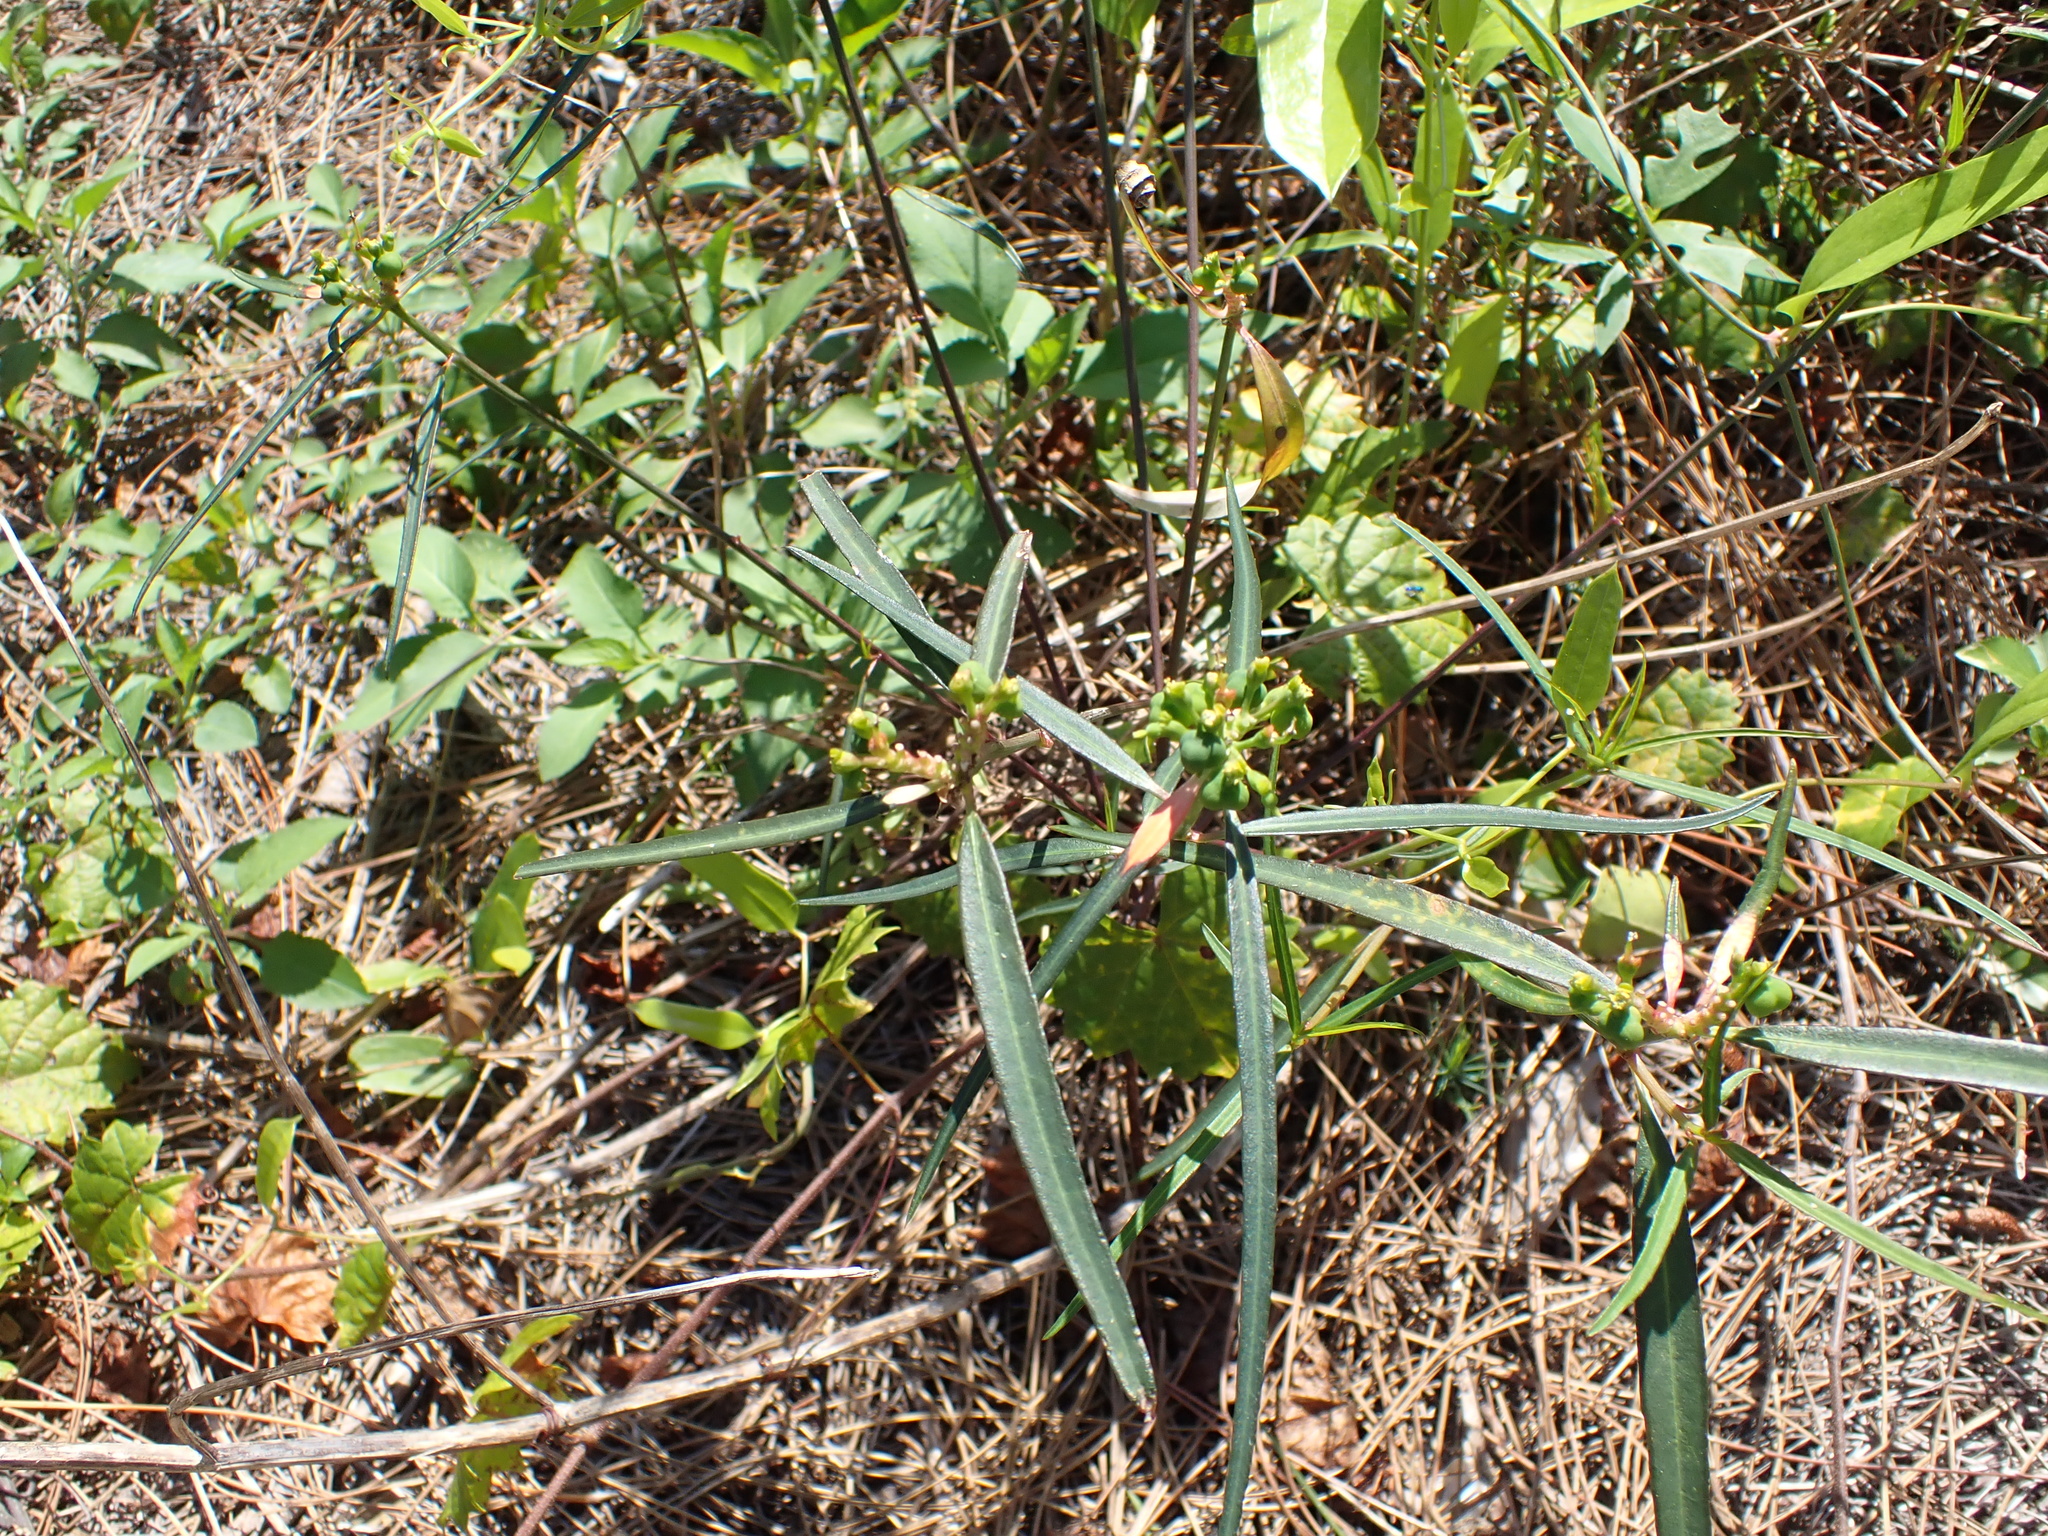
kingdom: Plantae
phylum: Tracheophyta
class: Magnoliopsida
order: Malpighiales
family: Euphorbiaceae
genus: Euphorbia
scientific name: Euphorbia heterophylla
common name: Mexican fireplant
